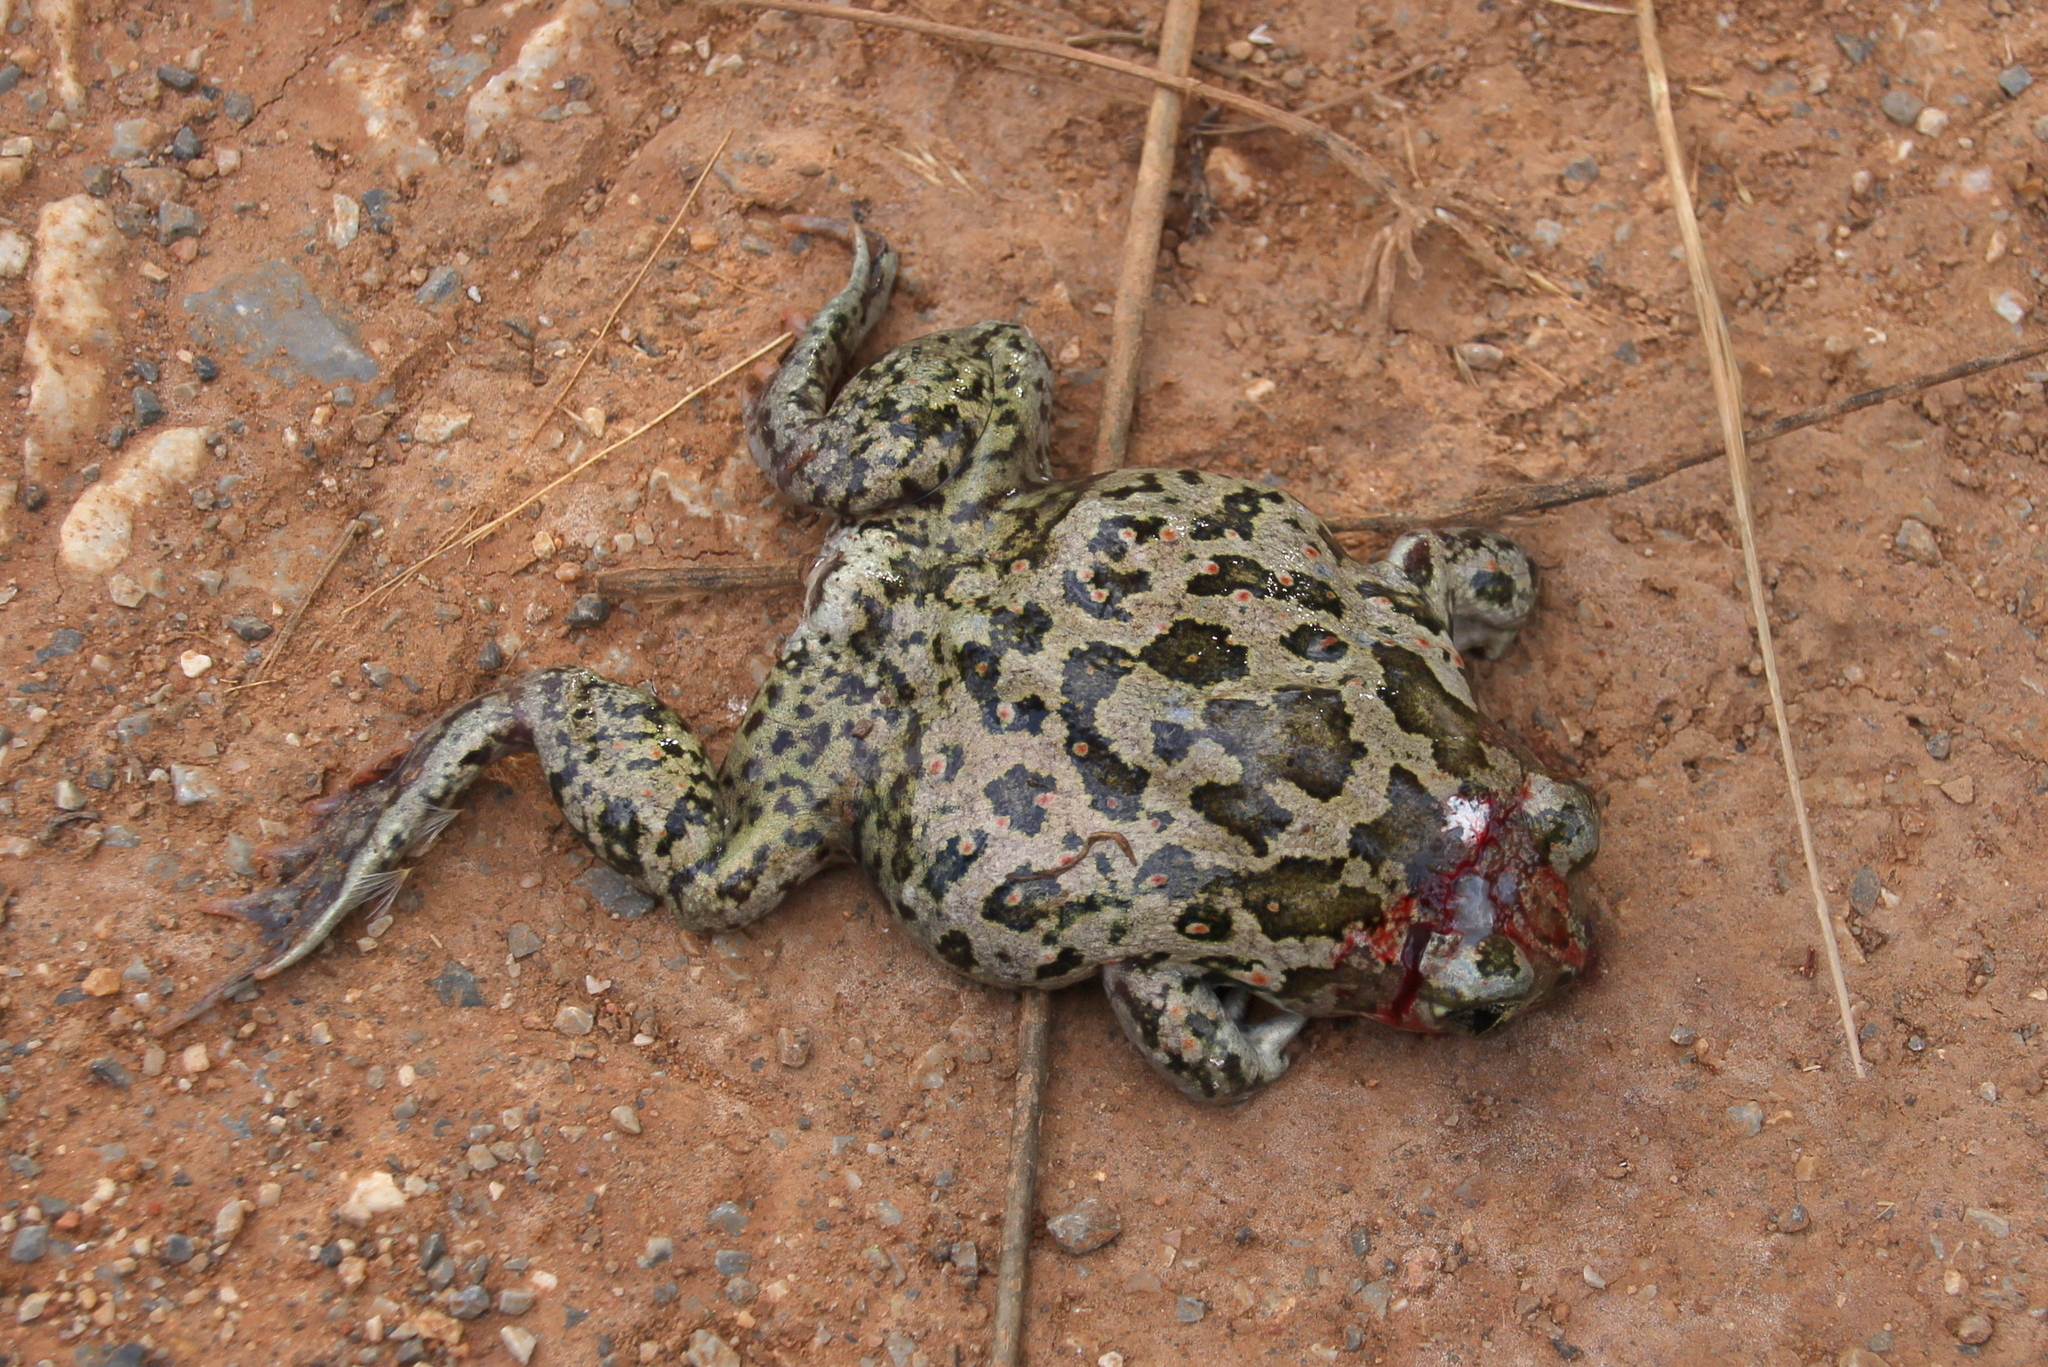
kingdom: Animalia
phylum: Chordata
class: Amphibia
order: Anura
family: Pelobatidae
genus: Pelobates
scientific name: Pelobates balcanicus
